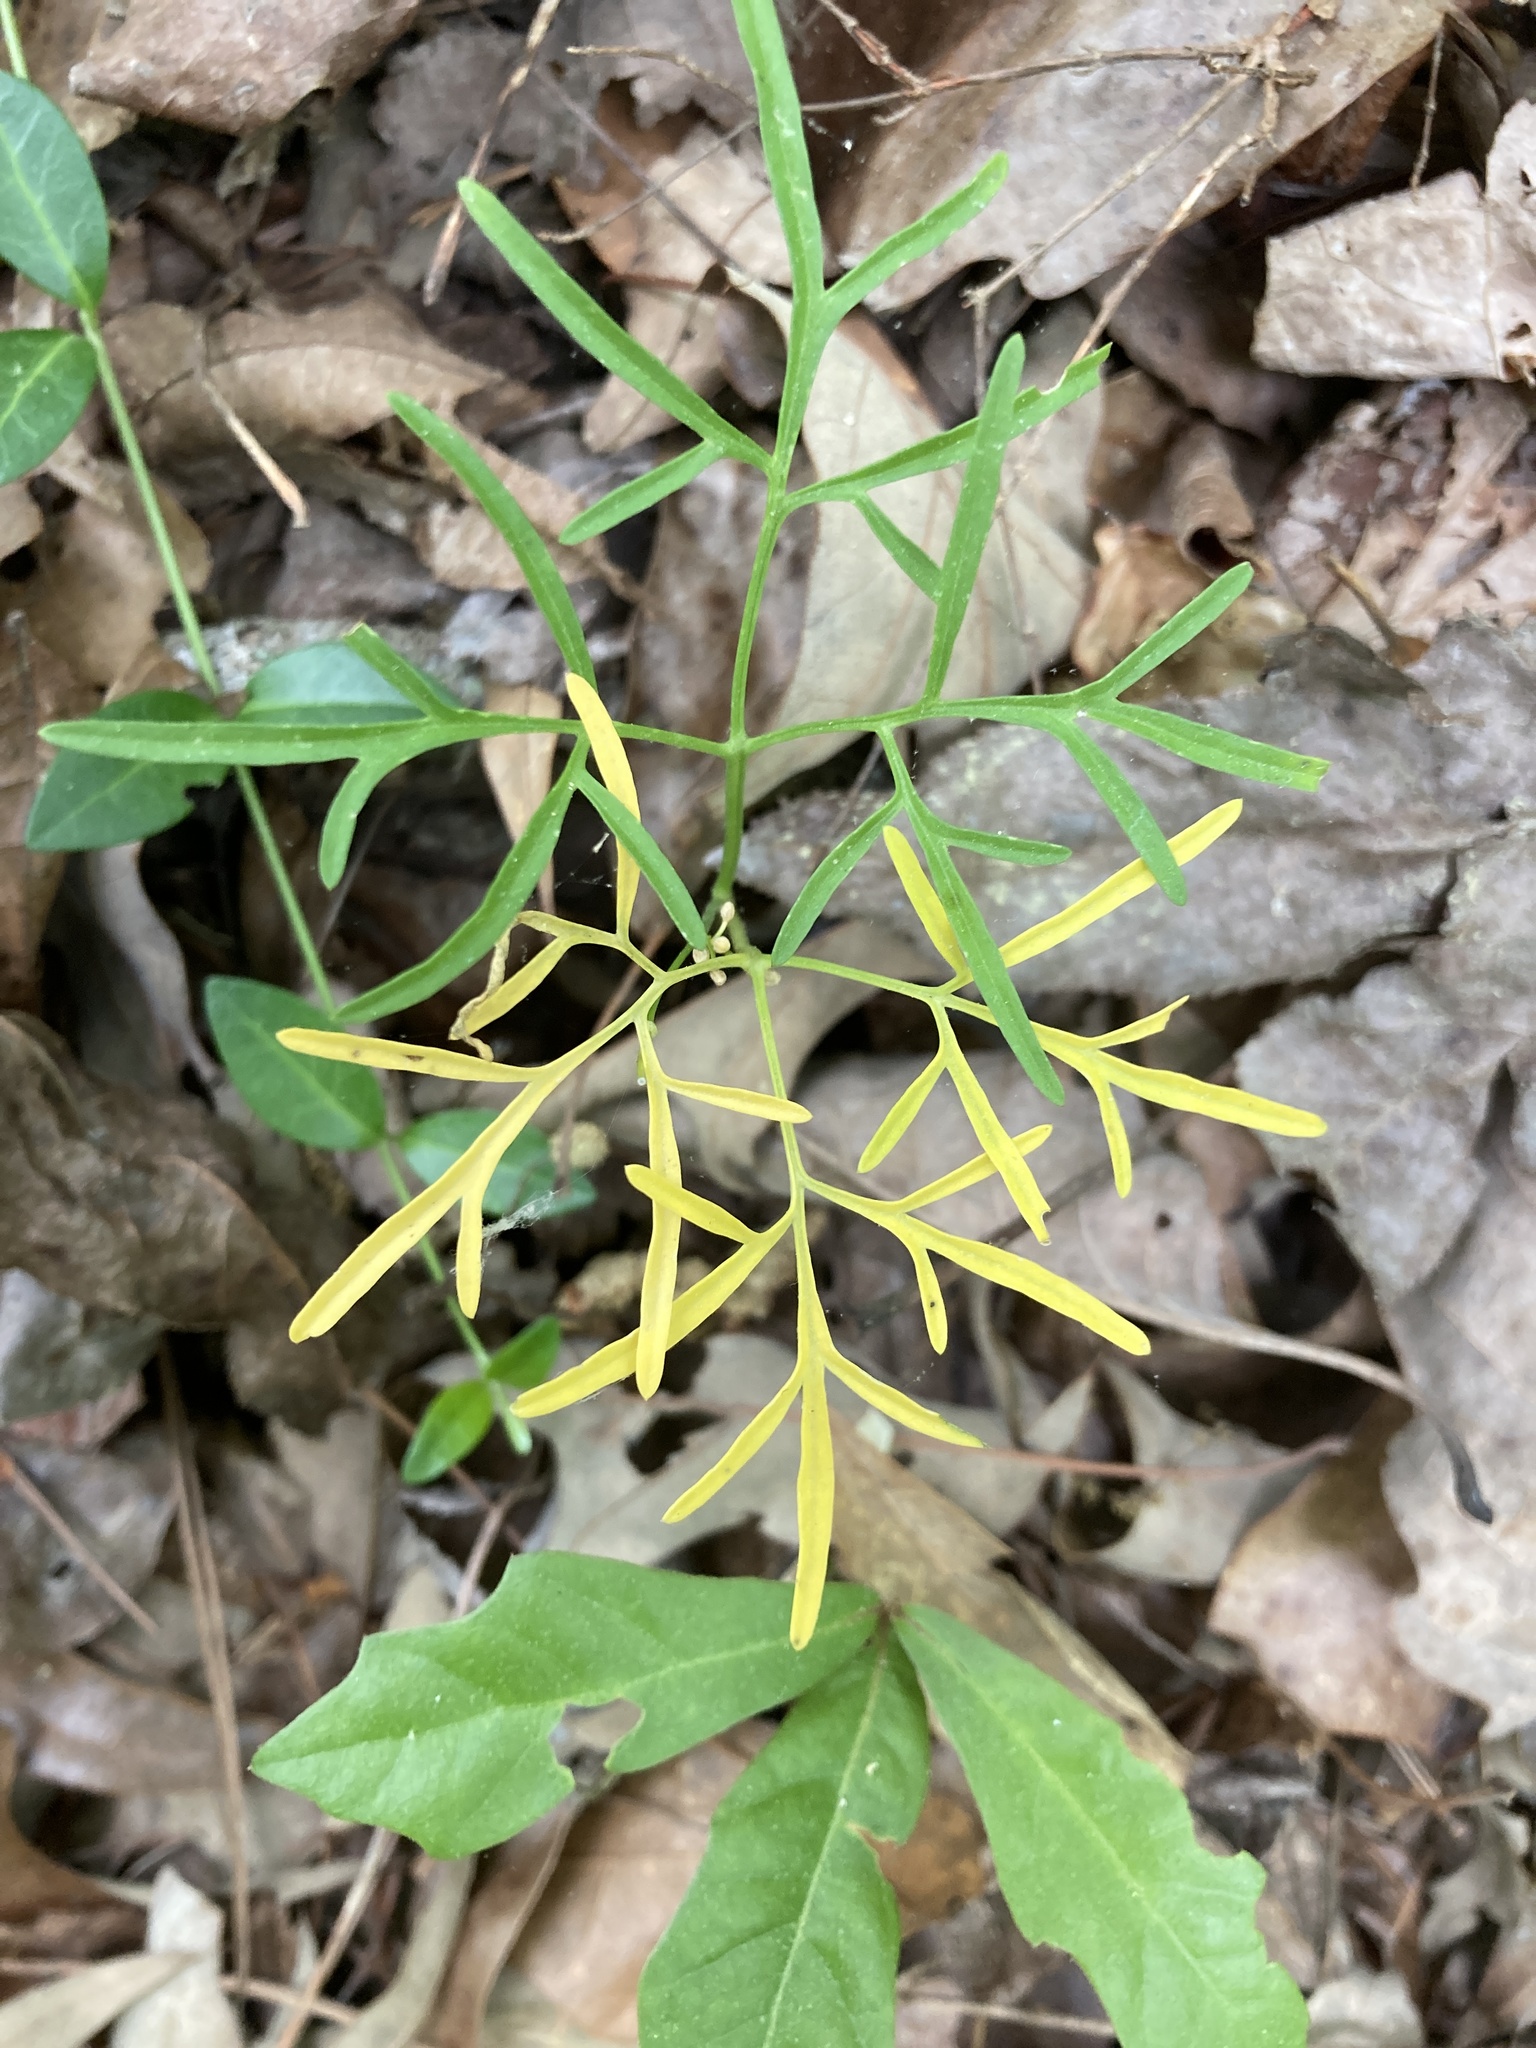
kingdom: Plantae
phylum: Tracheophyta
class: Magnoliopsida
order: Brassicales
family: Brassicaceae
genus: Cardamine
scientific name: Cardamine dissecta
